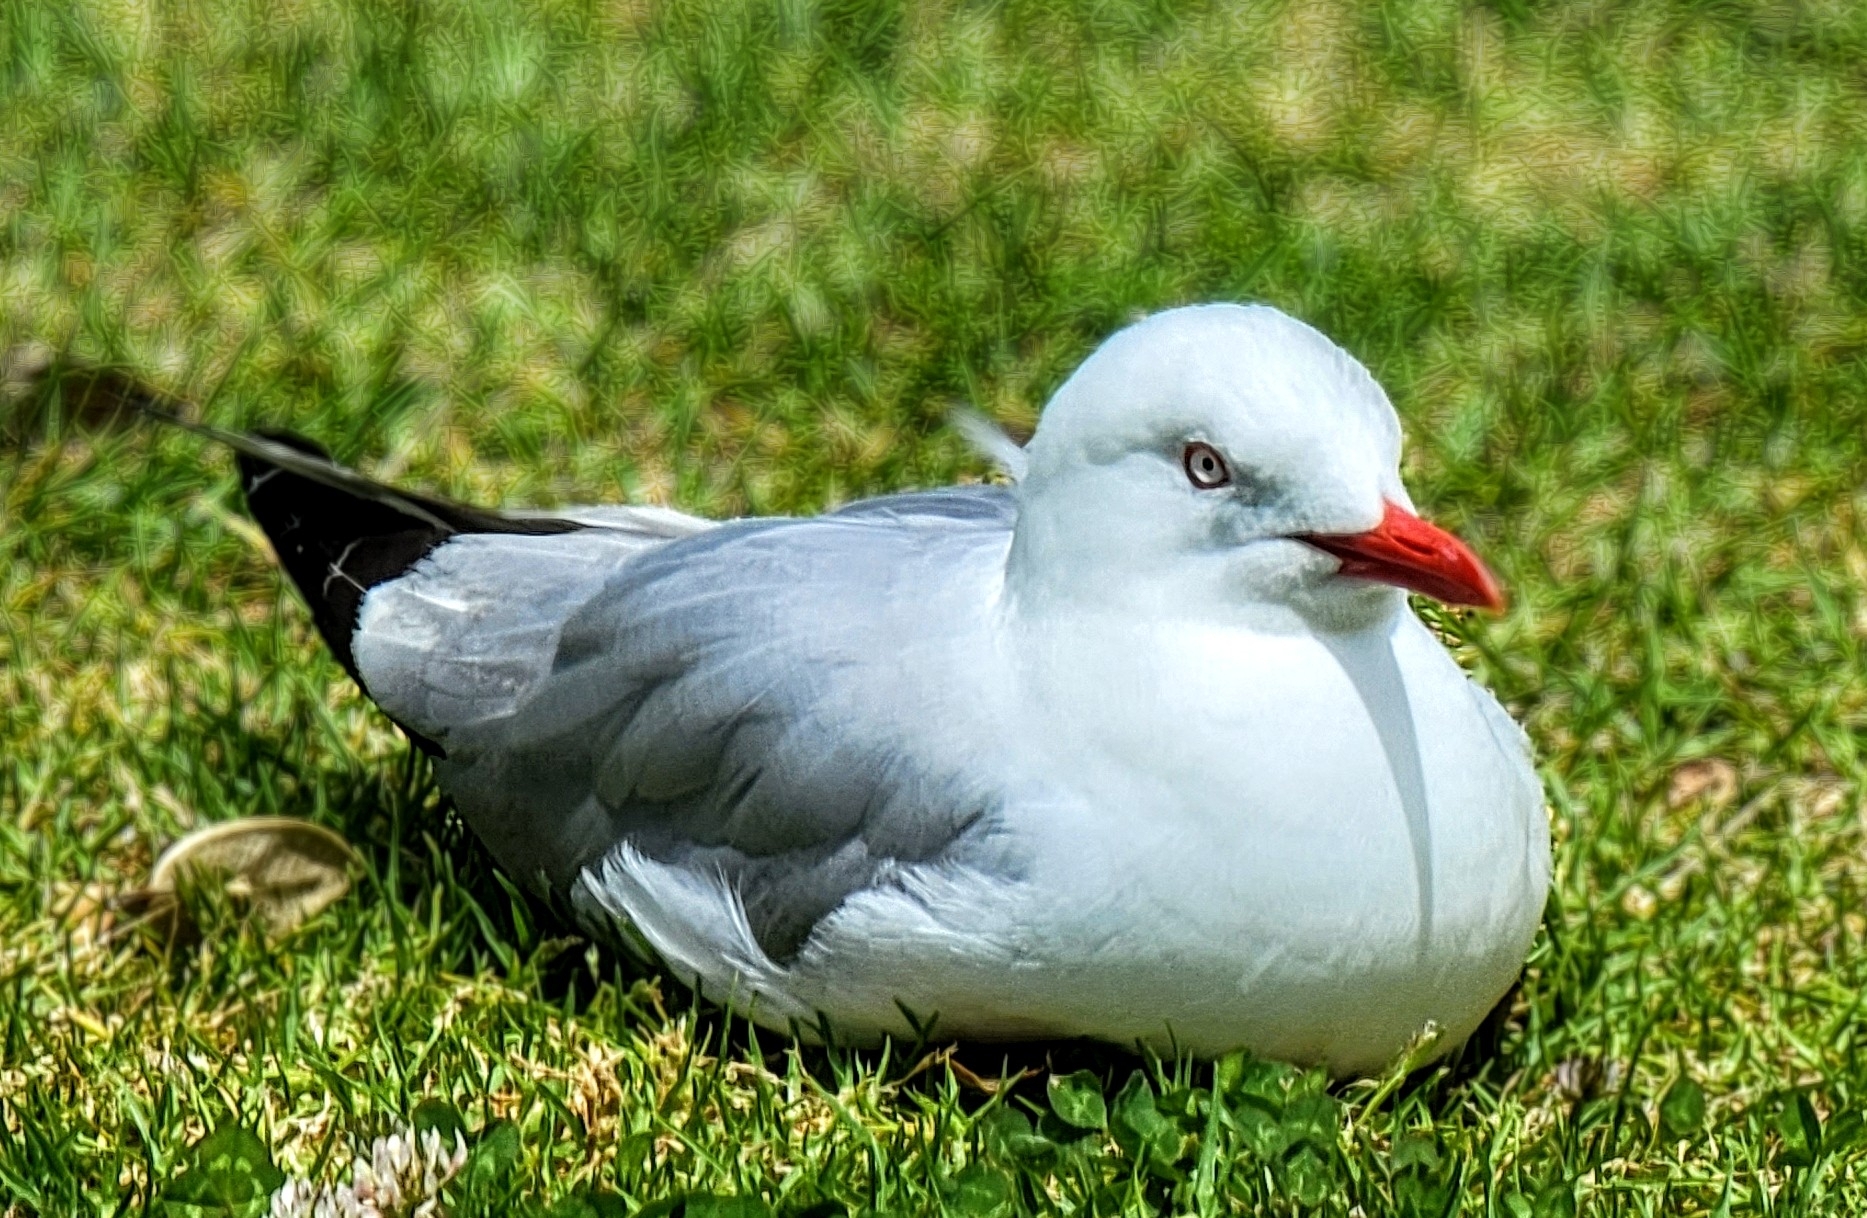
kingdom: Animalia
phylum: Chordata
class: Aves
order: Charadriiformes
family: Laridae
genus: Chroicocephalus
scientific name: Chroicocephalus novaehollandiae
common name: Silver gull
